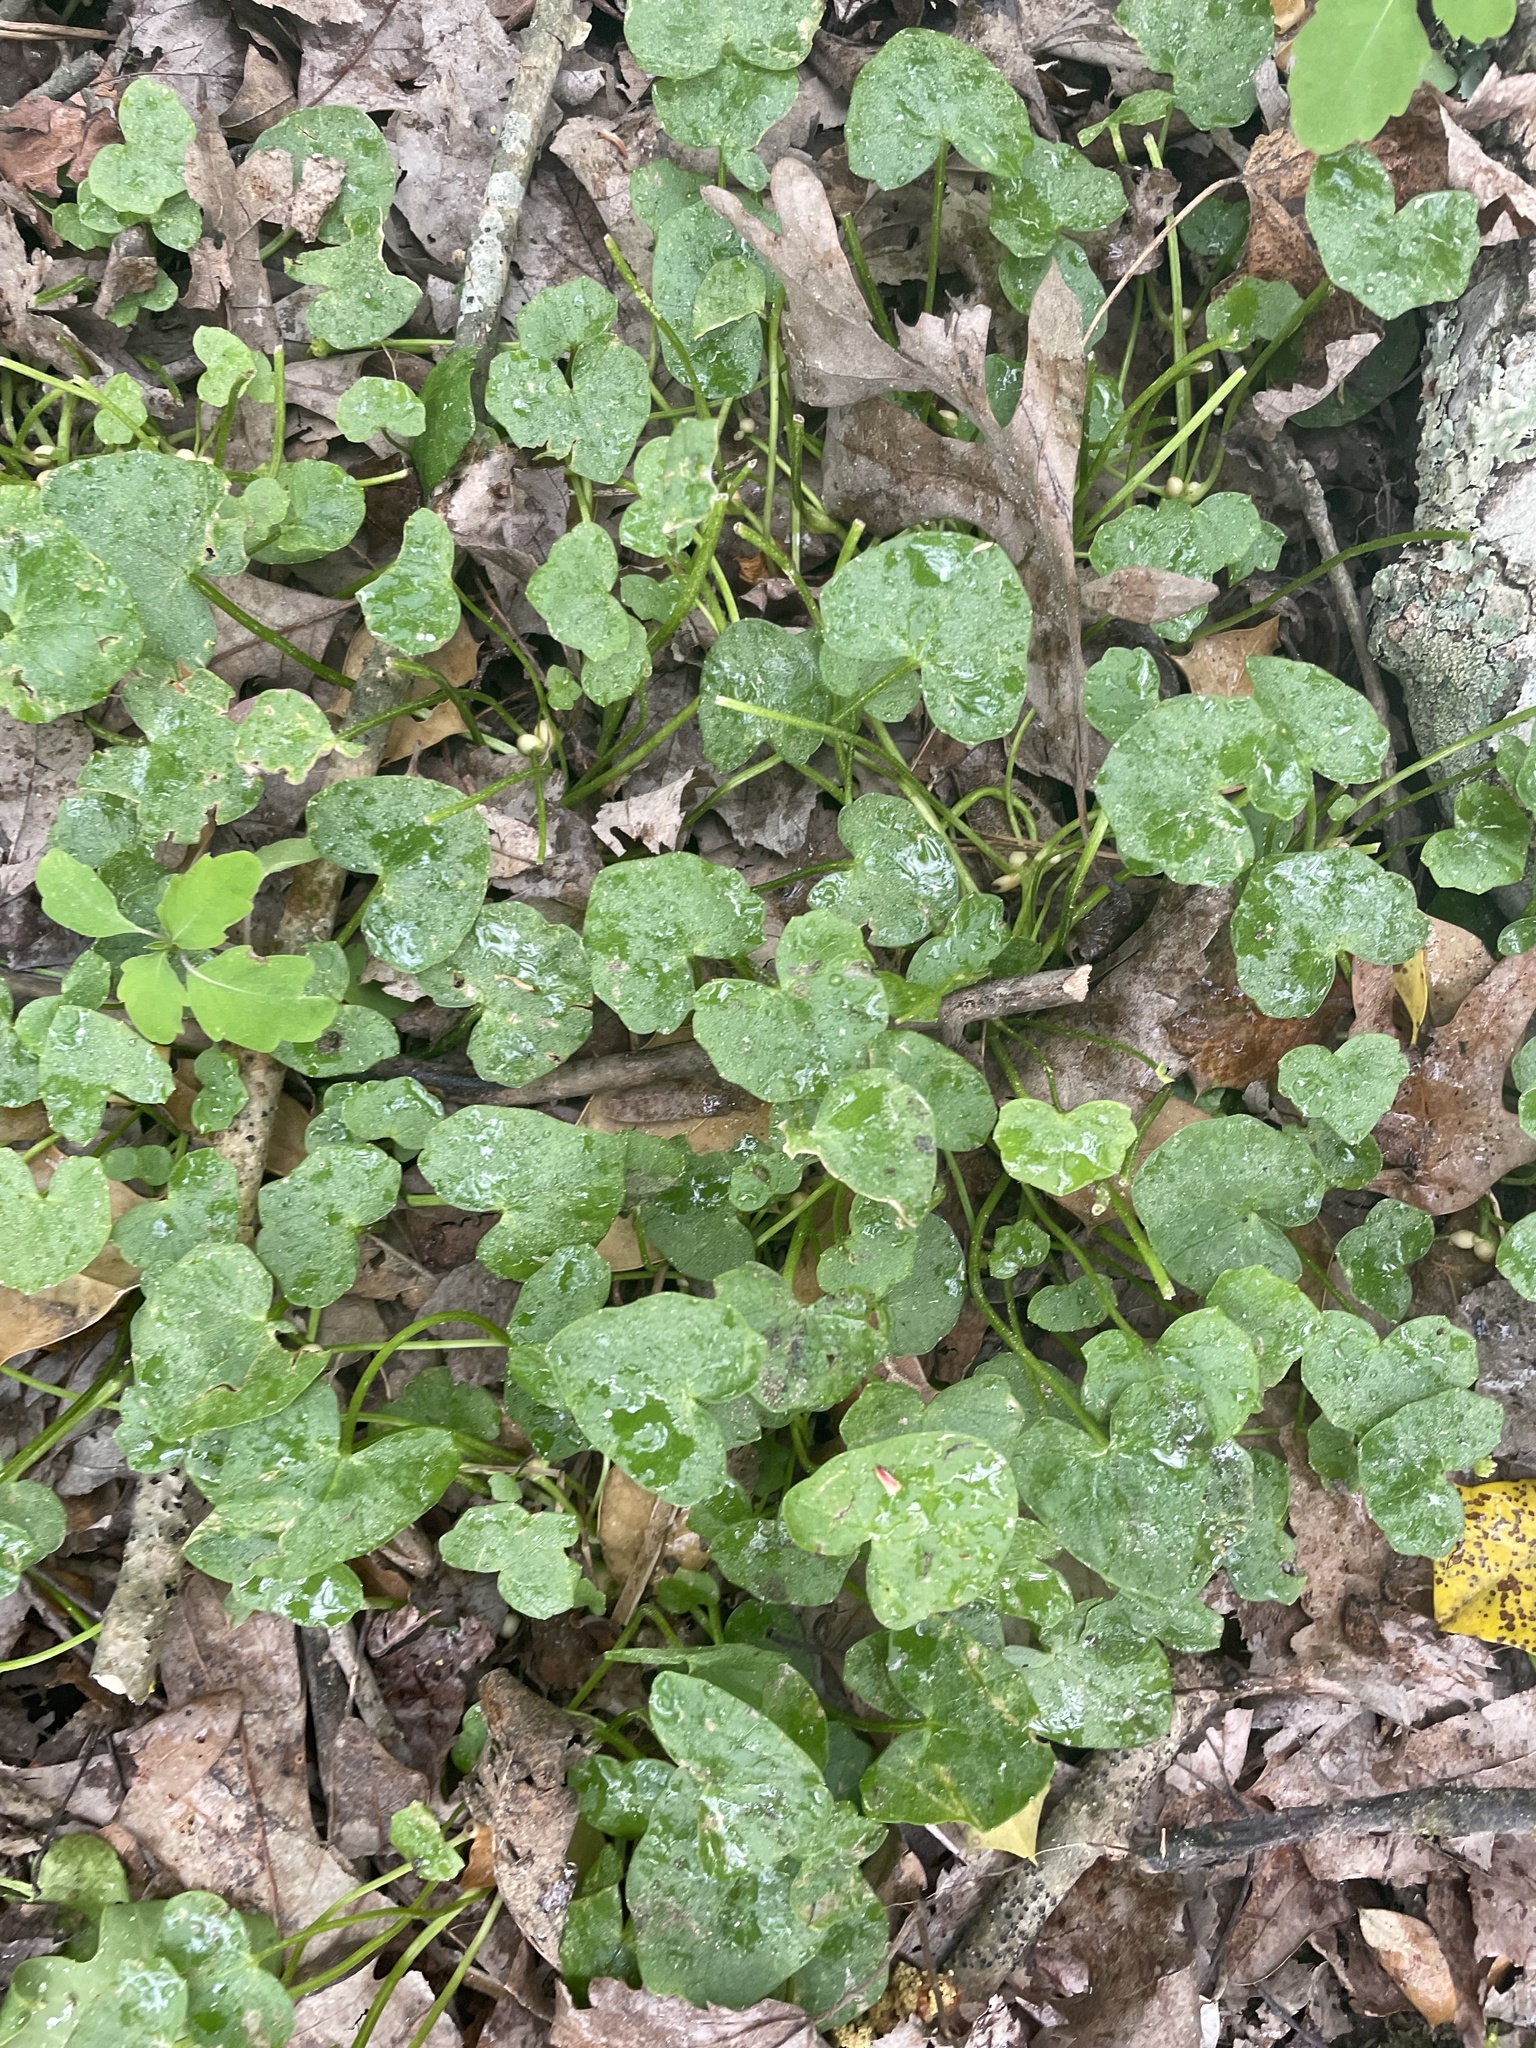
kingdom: Plantae
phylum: Tracheophyta
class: Magnoliopsida
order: Ranunculales
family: Ranunculaceae
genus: Ficaria
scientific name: Ficaria verna
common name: Lesser celandine
